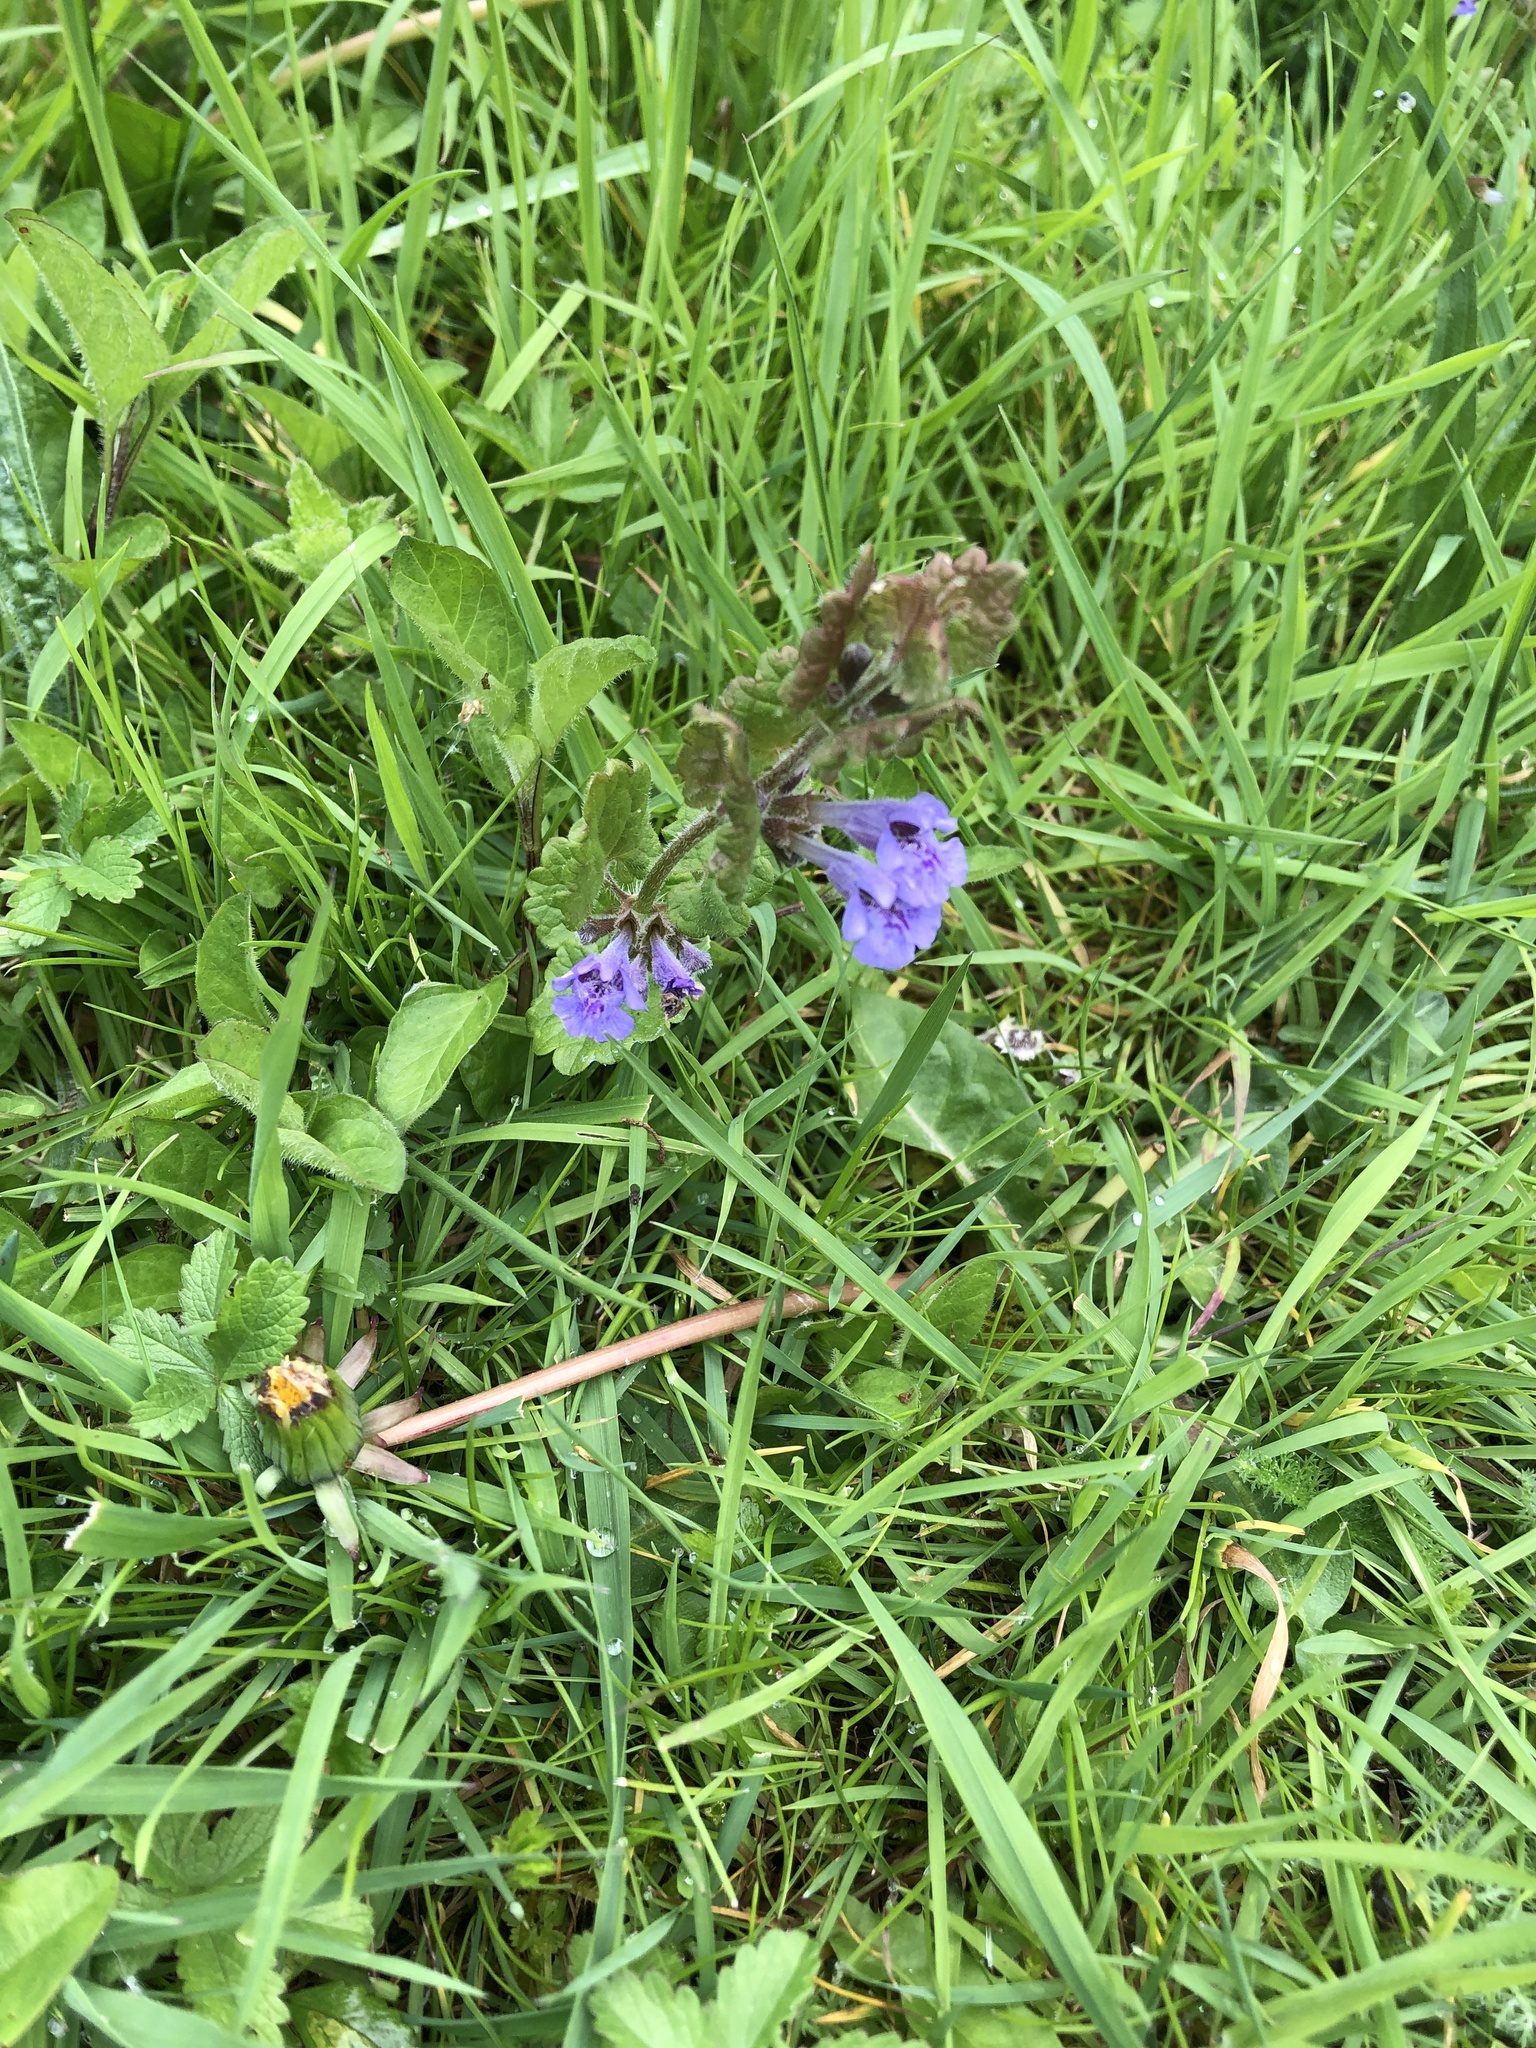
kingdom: Plantae
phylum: Tracheophyta
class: Magnoliopsida
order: Lamiales
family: Lamiaceae
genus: Glechoma
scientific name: Glechoma hederacea
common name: Ground ivy
